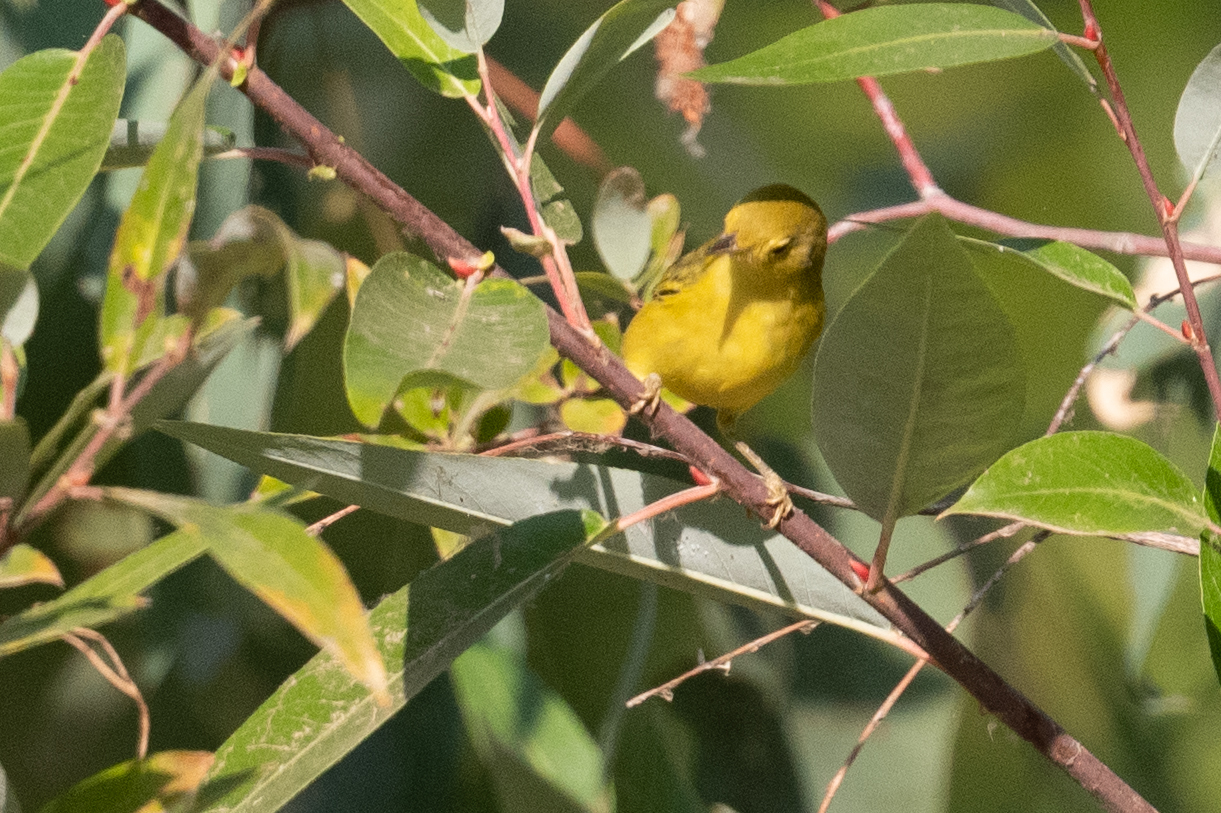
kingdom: Animalia
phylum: Chordata
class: Aves
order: Passeriformes
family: Parulidae
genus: Setophaga
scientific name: Setophaga petechia
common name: Yellow warbler
